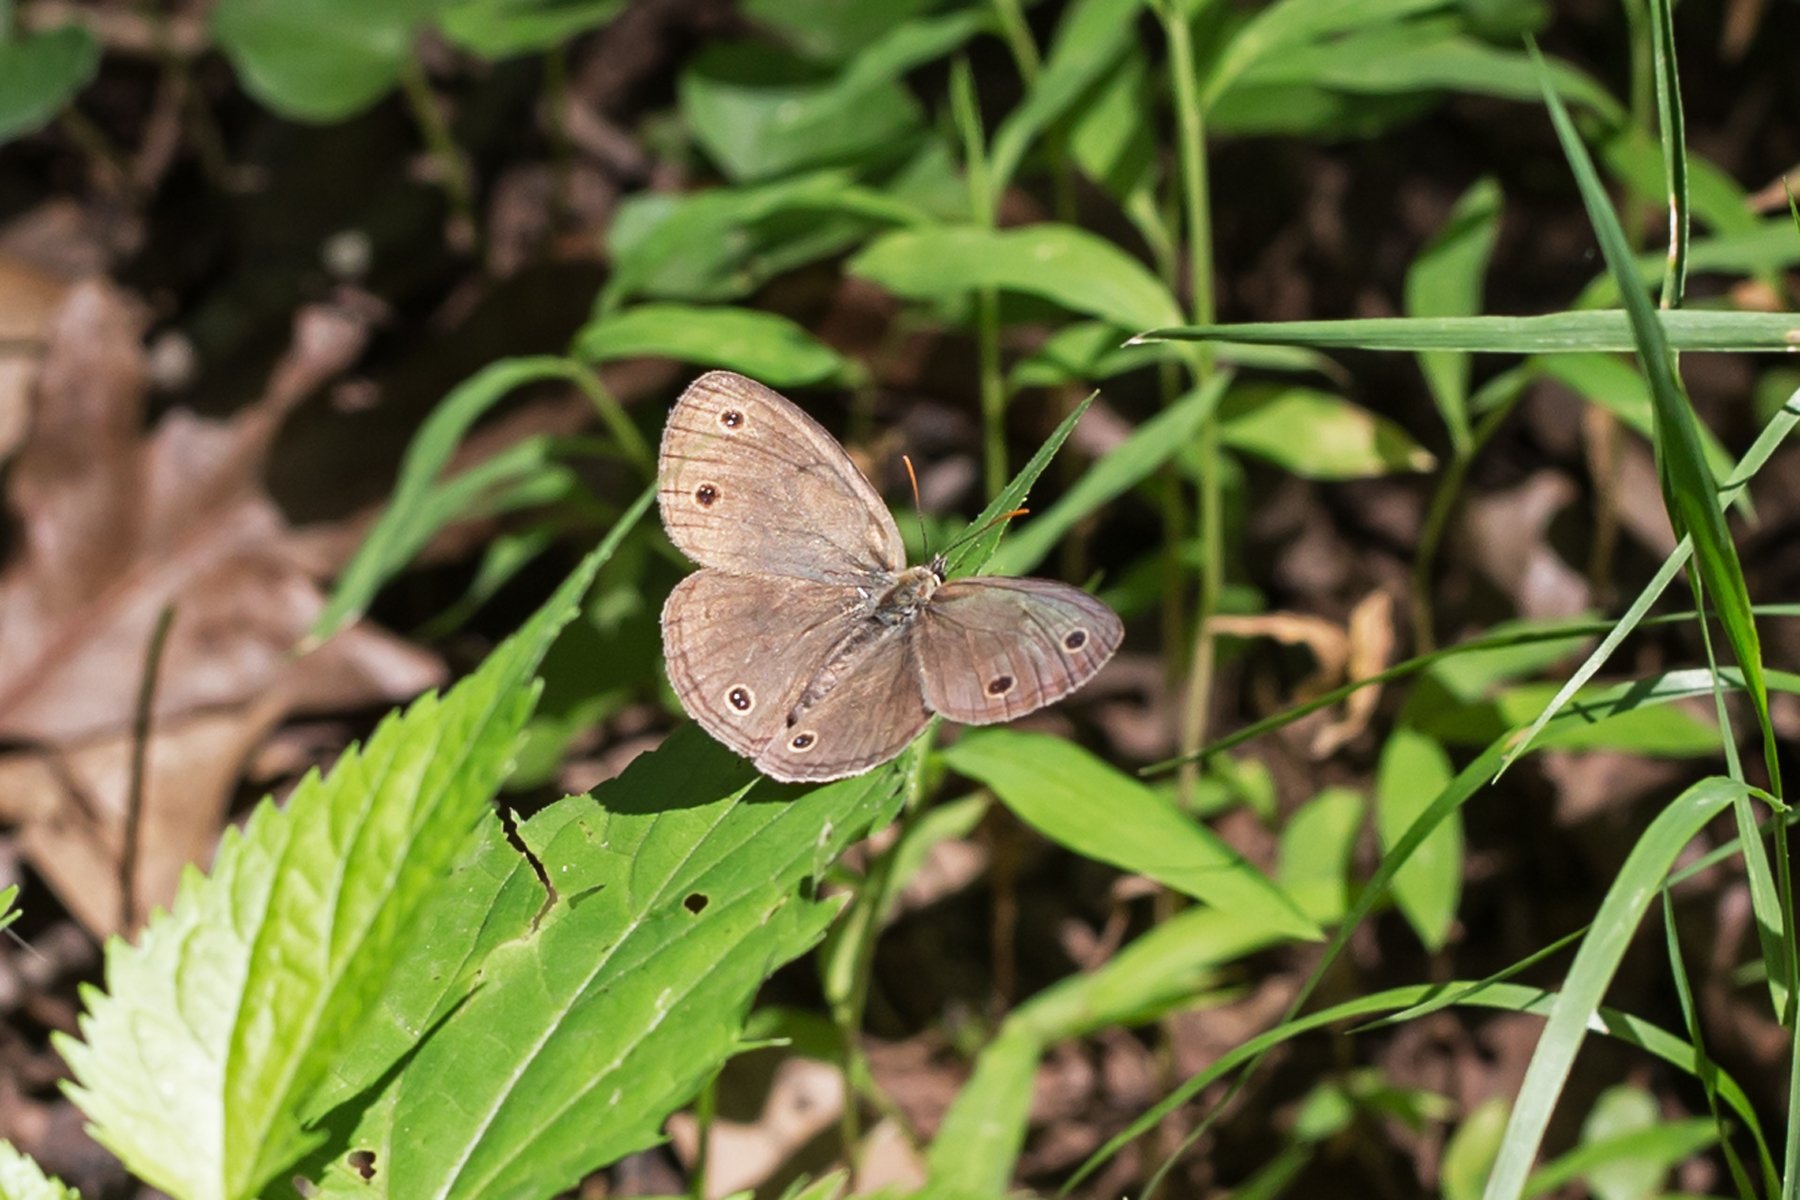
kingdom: Animalia
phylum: Arthropoda
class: Insecta
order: Lepidoptera
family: Nymphalidae
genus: Euptychia
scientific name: Euptychia cymela
